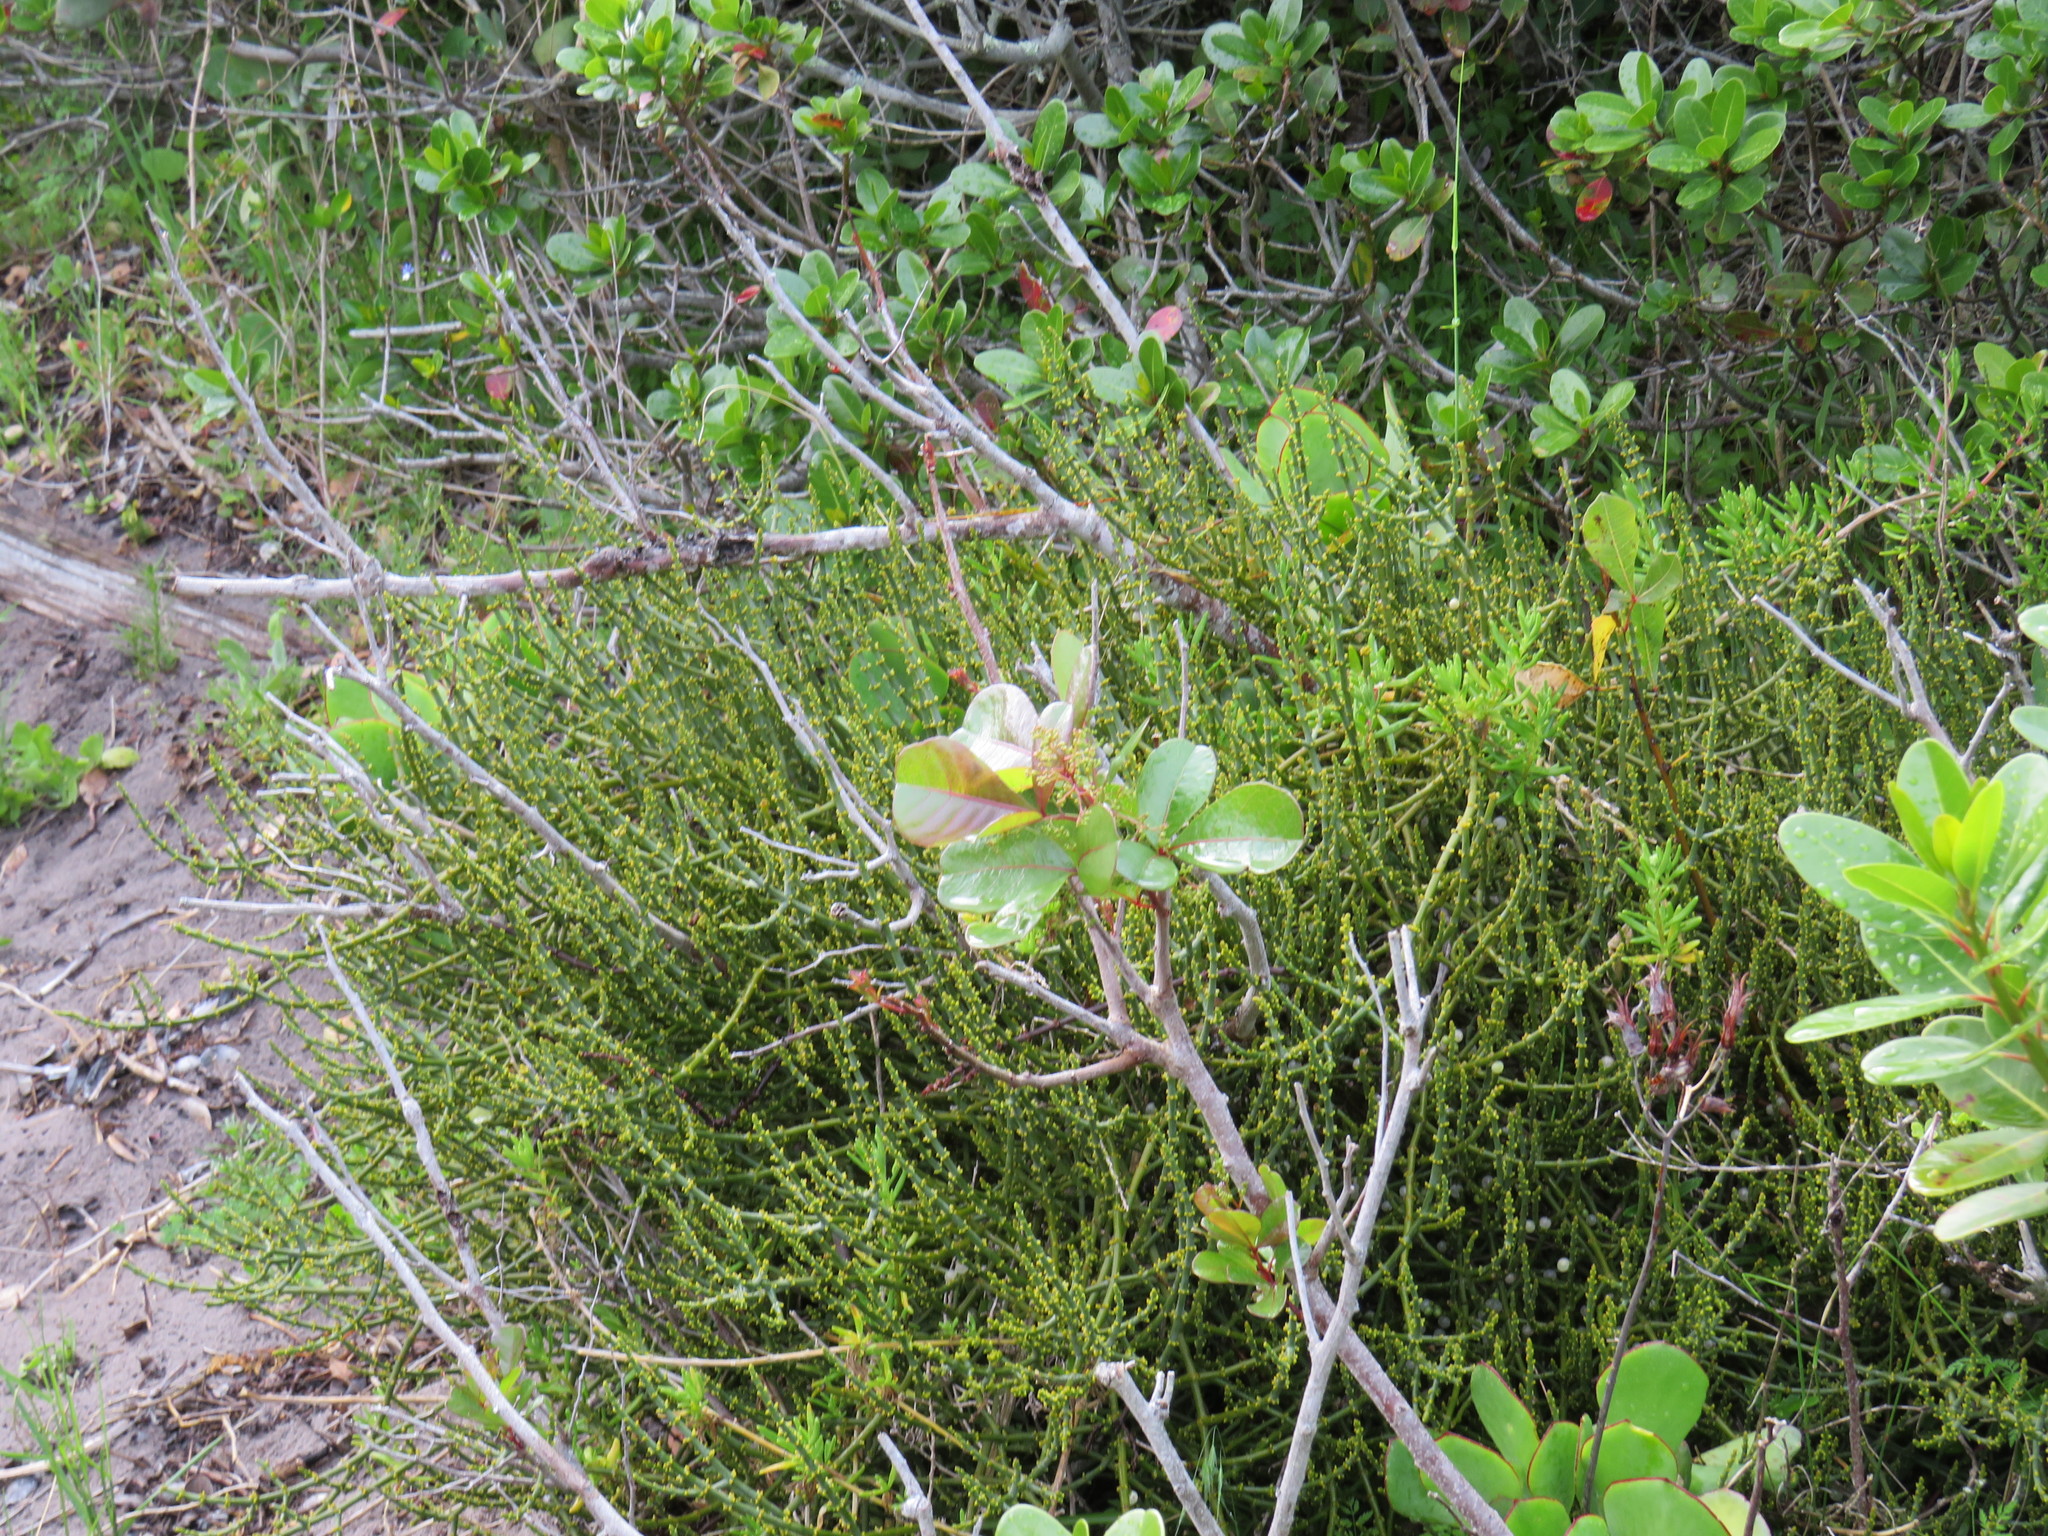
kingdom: Plantae
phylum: Tracheophyta
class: Magnoliopsida
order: Sapindales
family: Anacardiaceae
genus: Searsia
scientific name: Searsia laevigata
